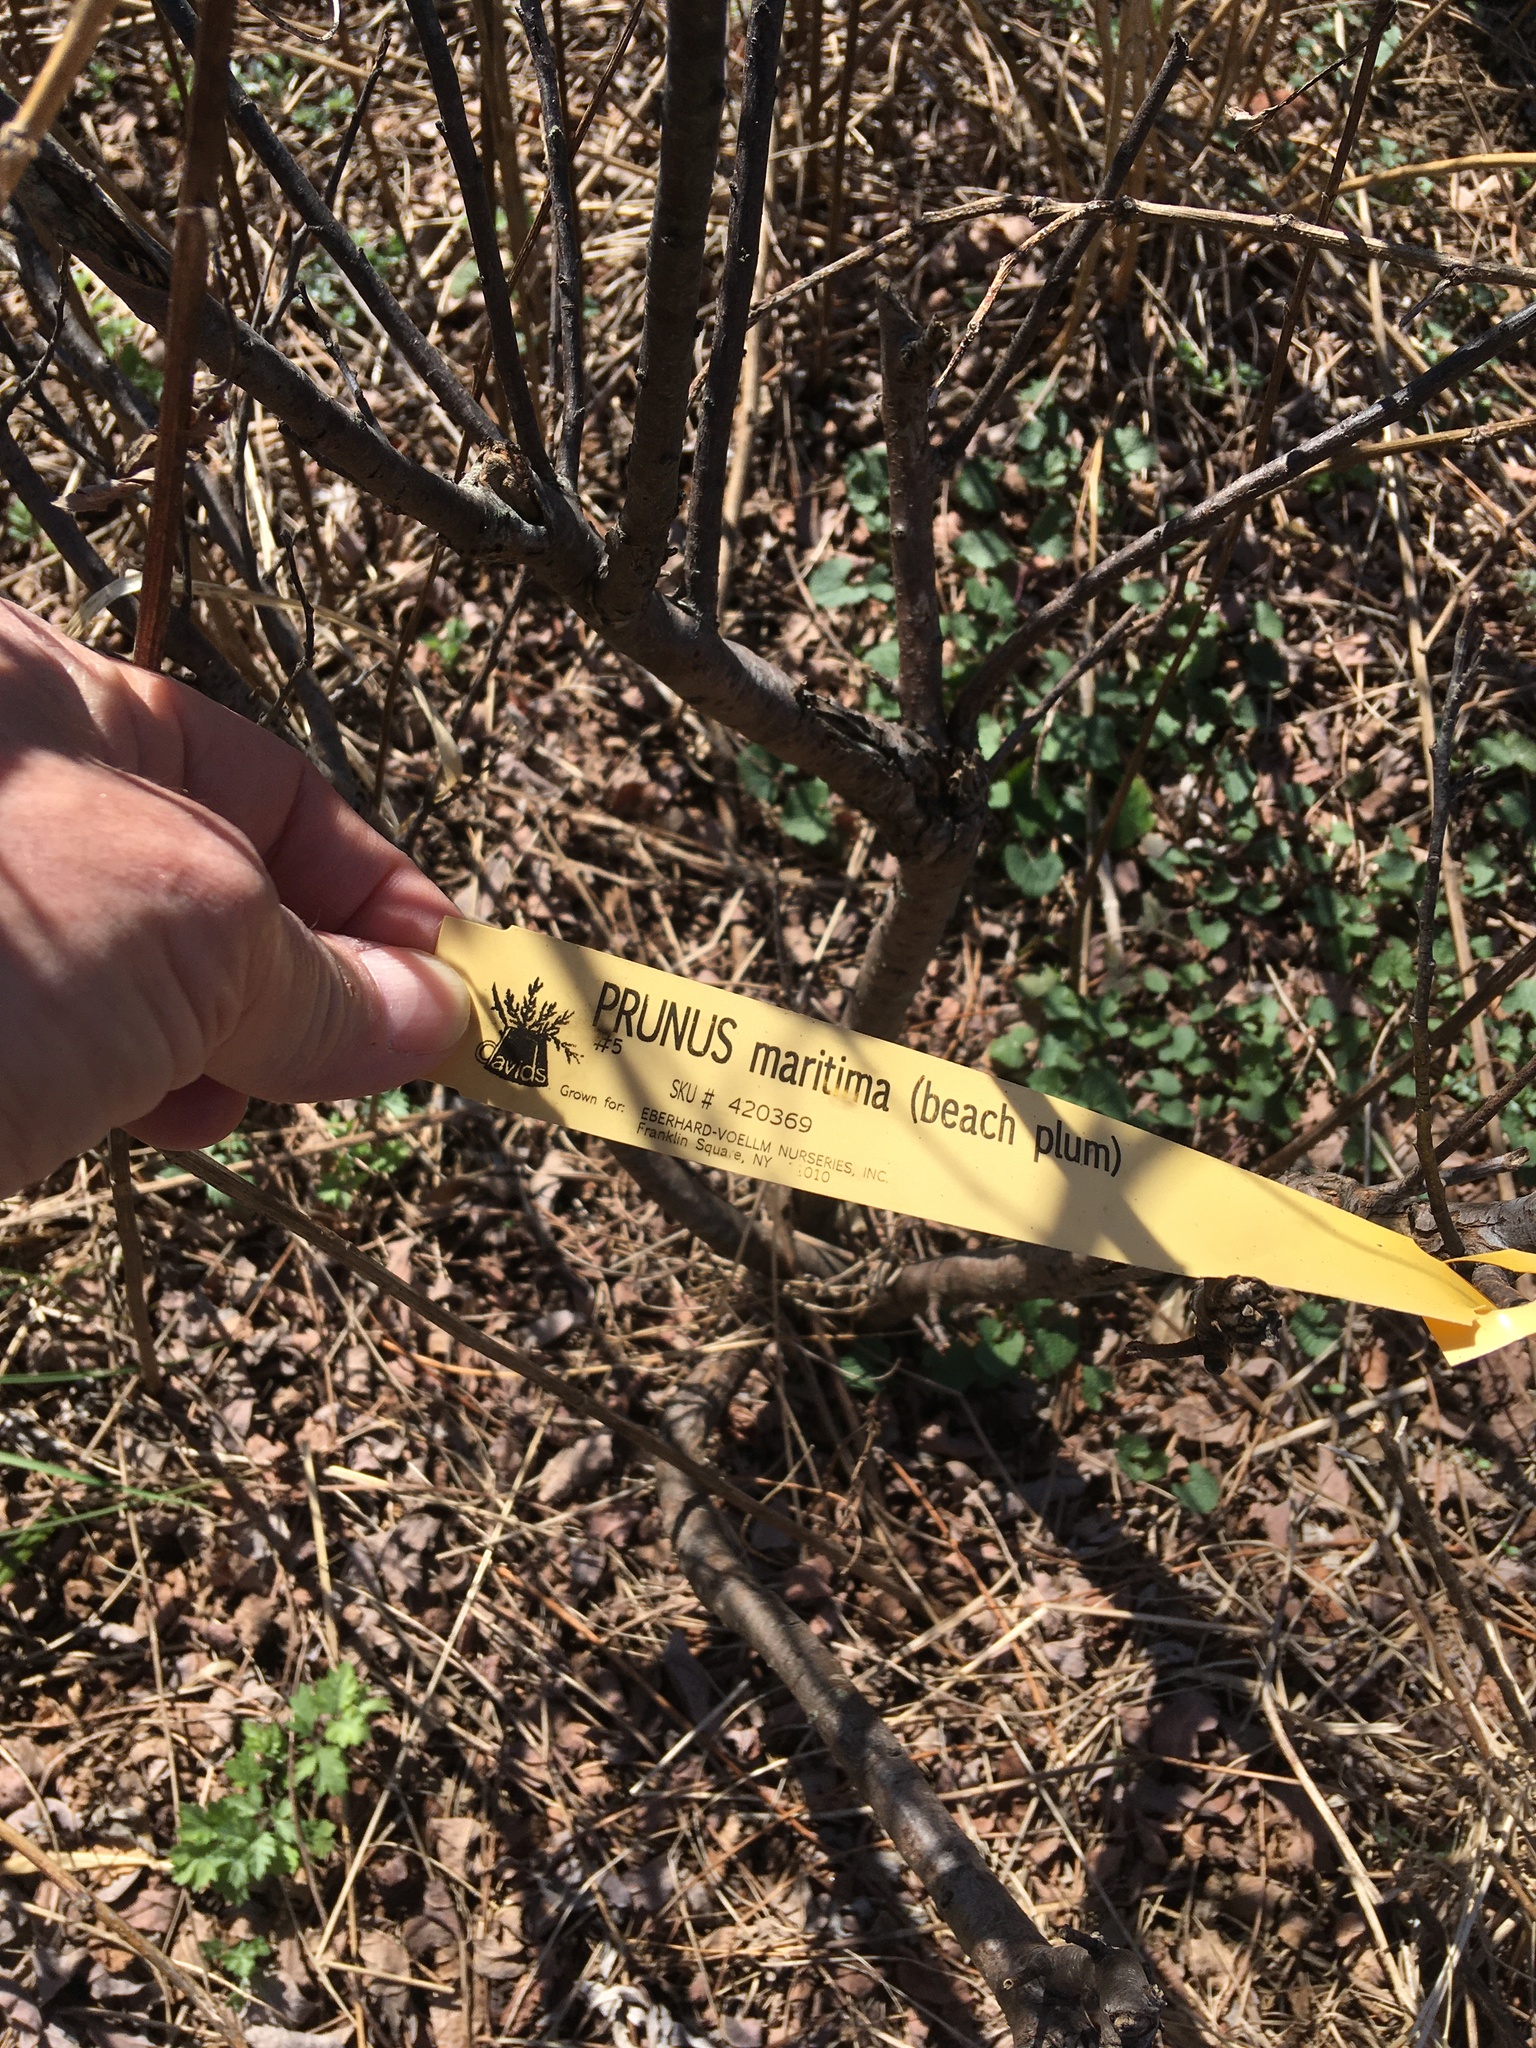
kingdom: Plantae
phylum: Tracheophyta
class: Magnoliopsida
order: Rosales
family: Rosaceae
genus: Prunus
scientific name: Prunus maritima
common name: Beach plum
